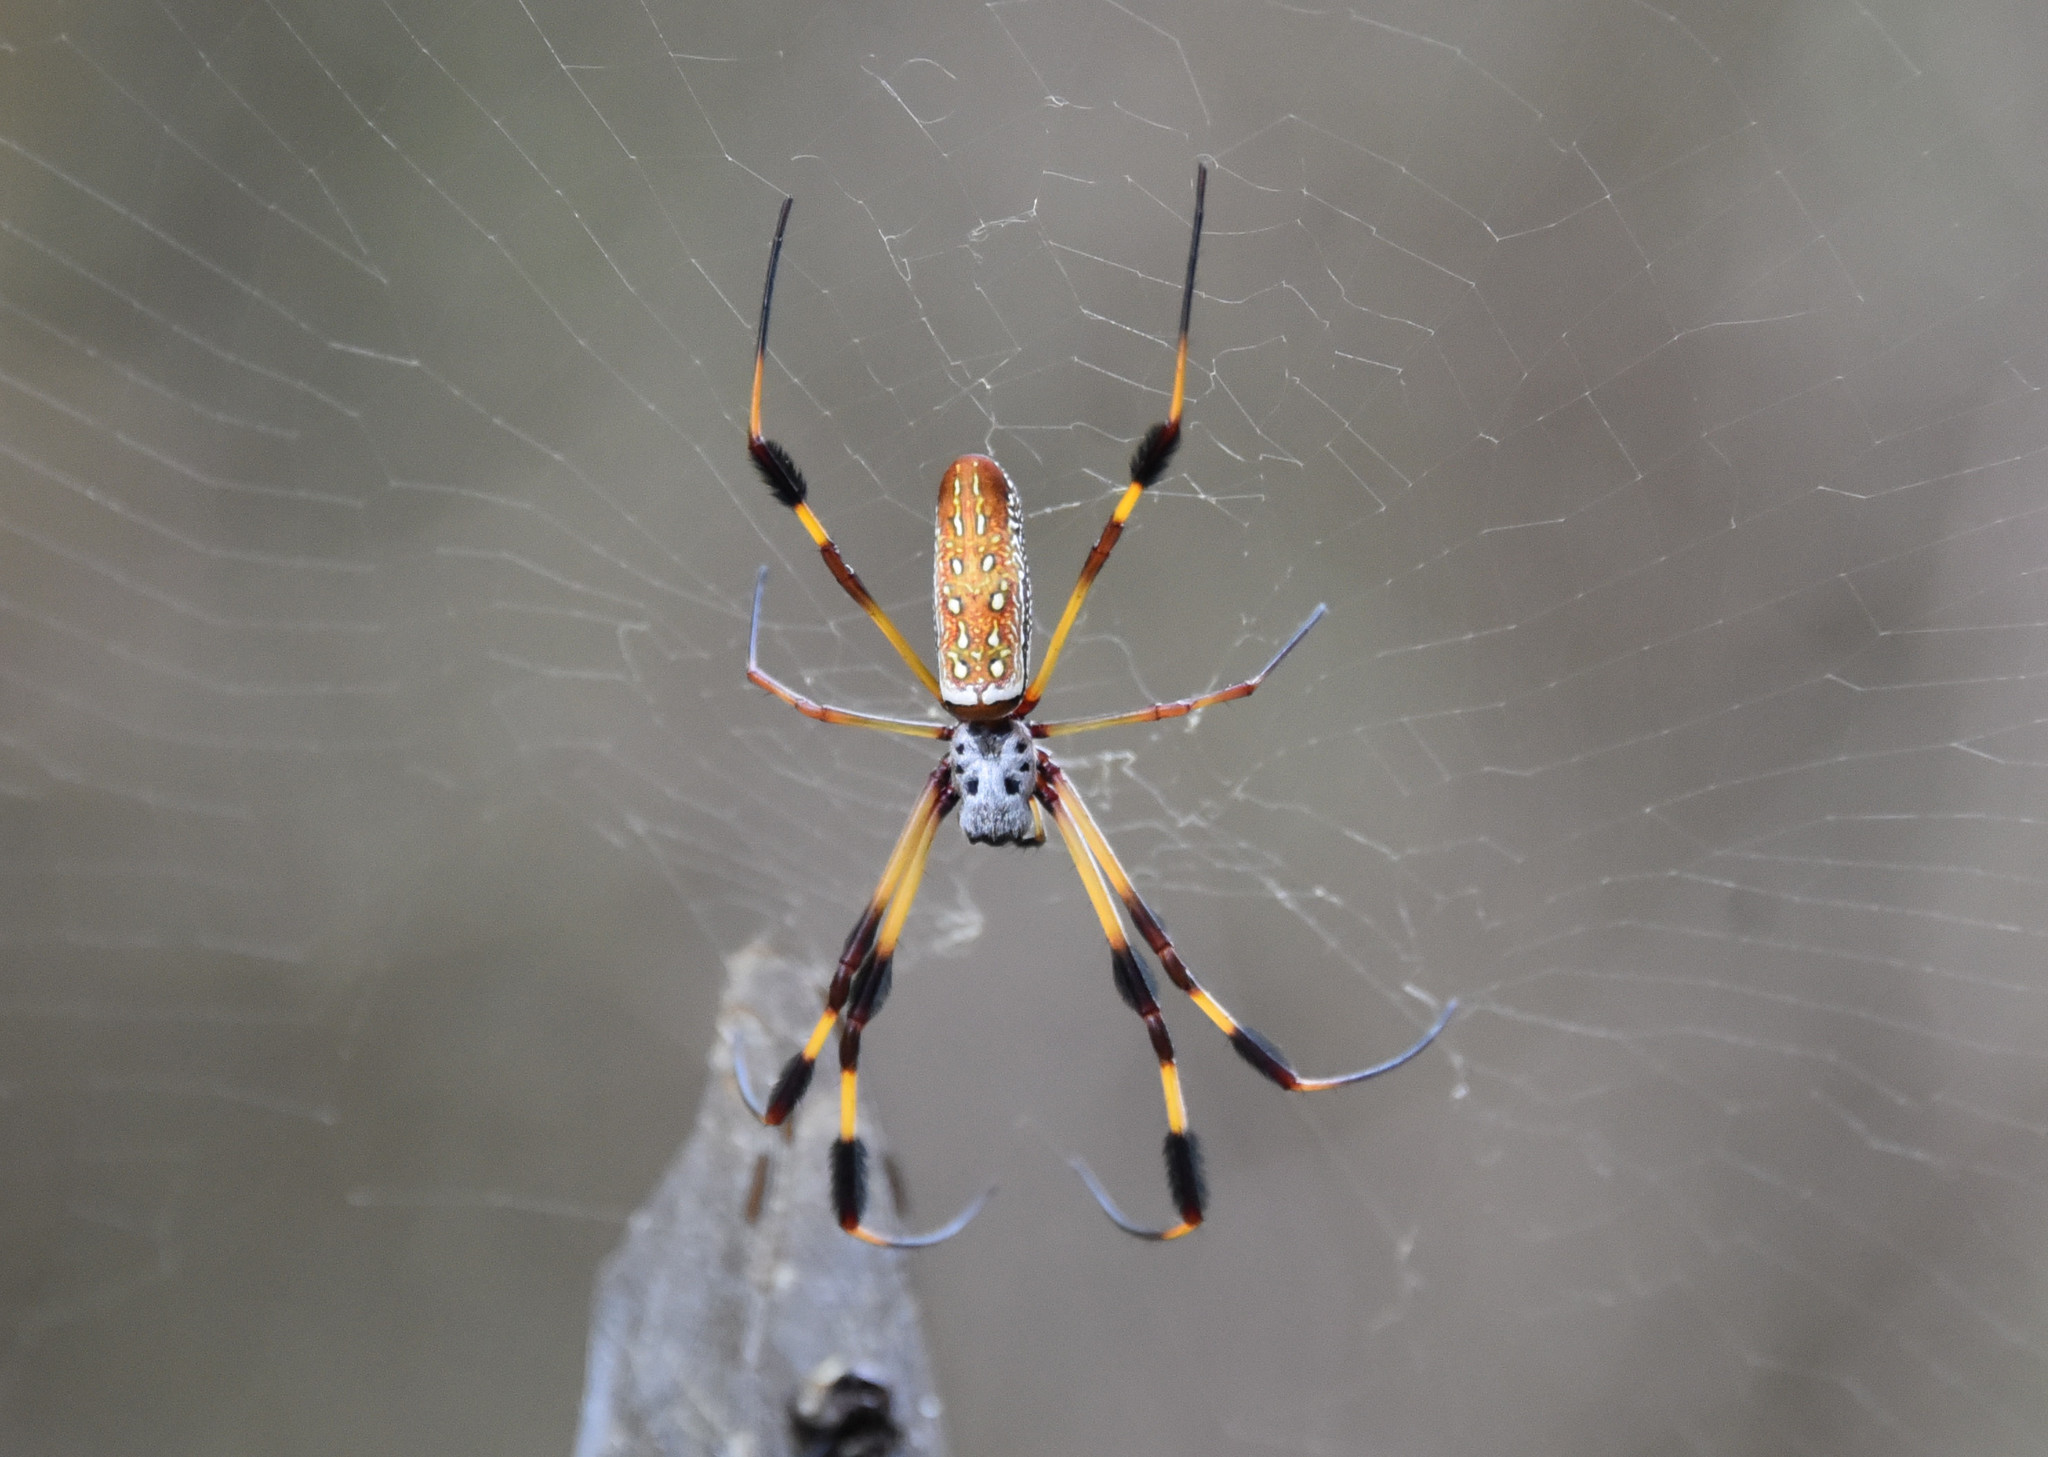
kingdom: Animalia
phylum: Arthropoda
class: Arachnida
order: Araneae
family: Araneidae
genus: Trichonephila
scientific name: Trichonephila clavipes
